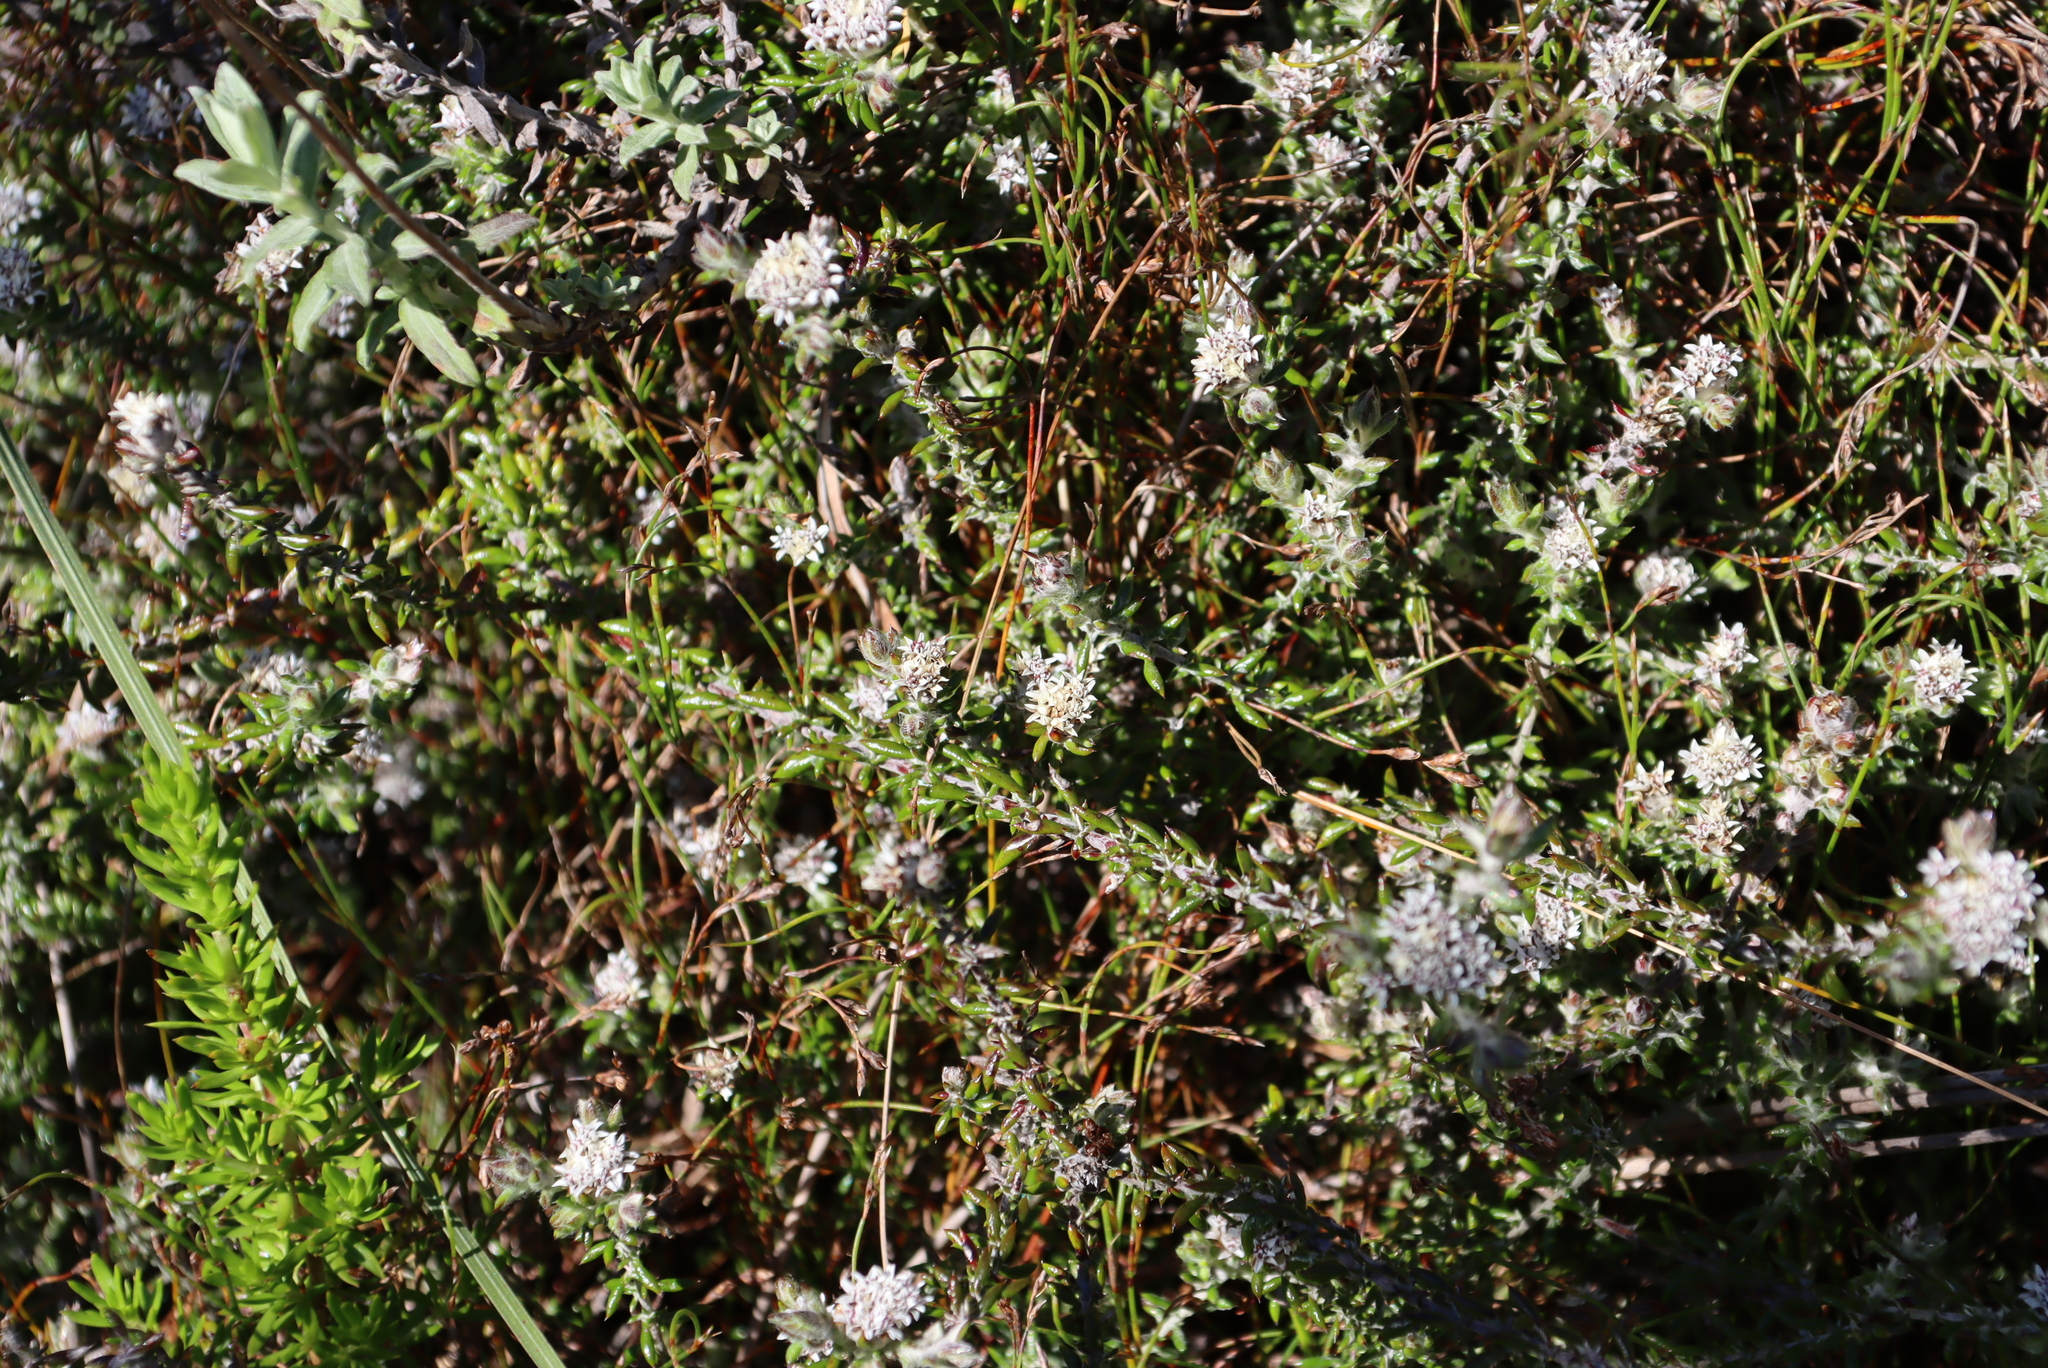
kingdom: Plantae
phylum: Tracheophyta
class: Magnoliopsida
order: Asterales
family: Asteraceae
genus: Metalasia
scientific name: Metalasia divergens
